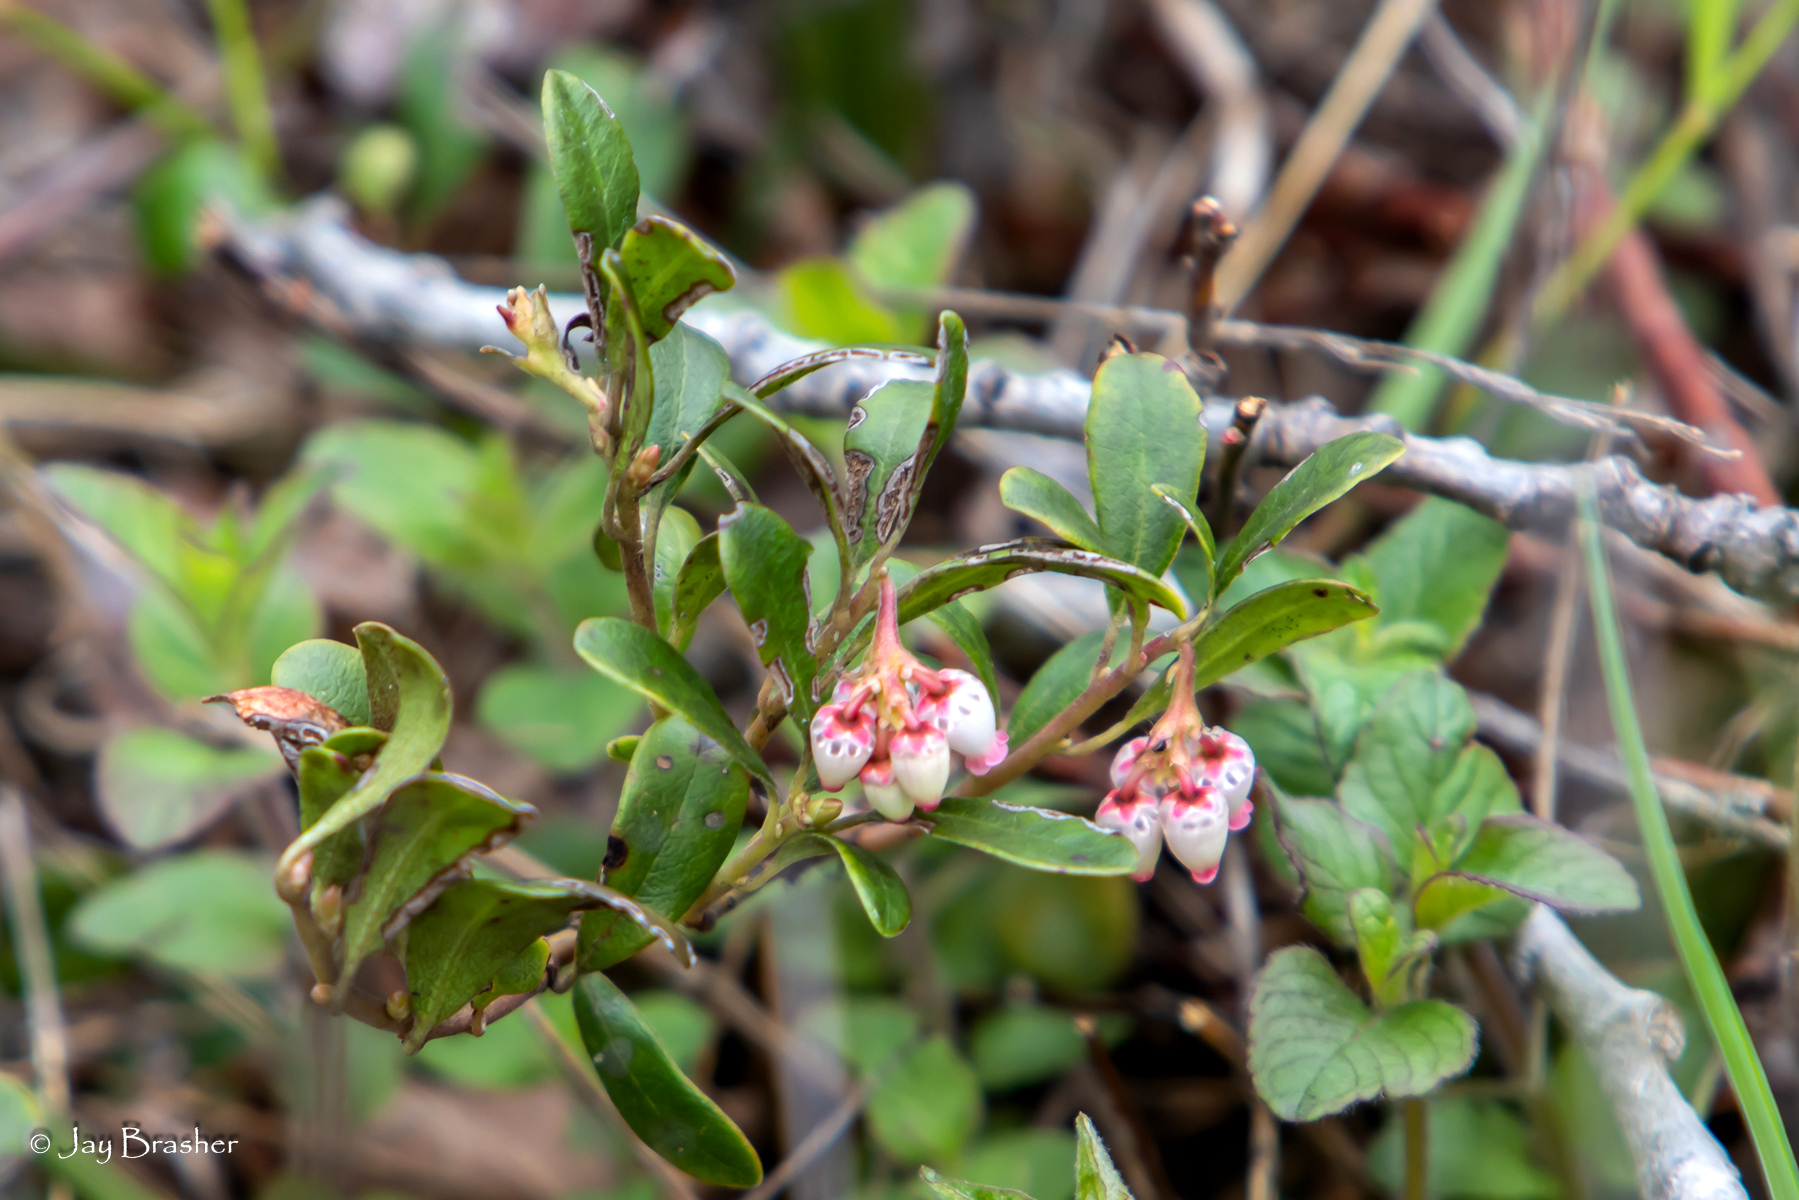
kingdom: Plantae
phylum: Tracheophyta
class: Magnoliopsida
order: Ericales
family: Ericaceae
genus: Arctostaphylos
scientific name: Arctostaphylos uva-ursi
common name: Bearberry
